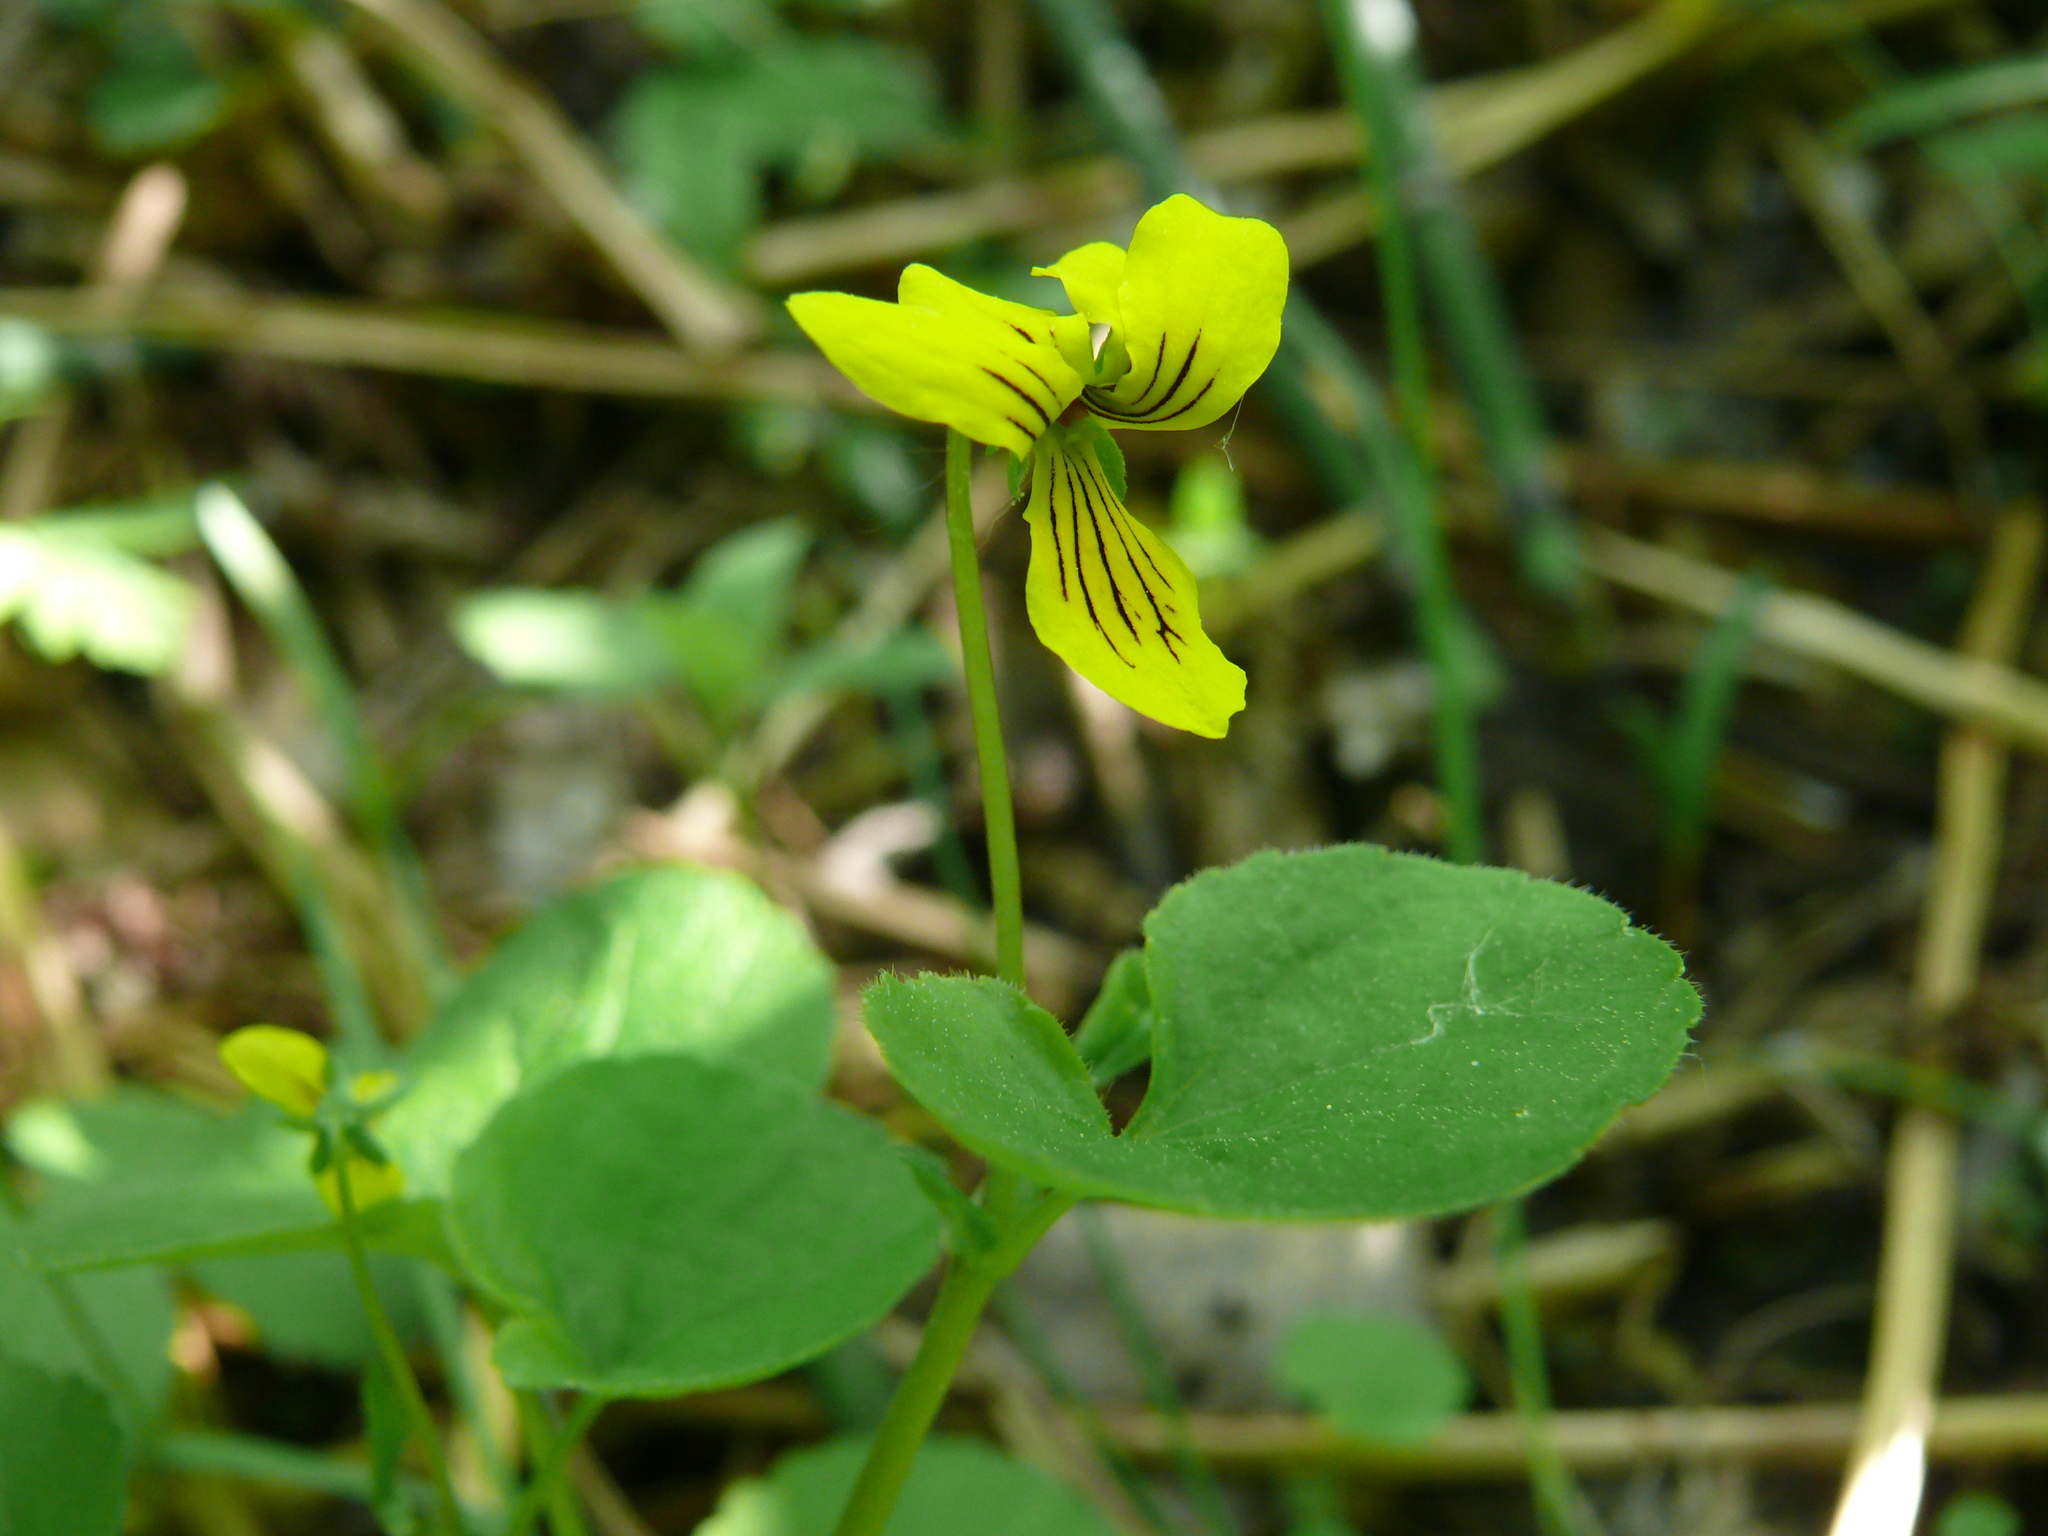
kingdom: Plantae
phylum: Tracheophyta
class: Magnoliopsida
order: Malpighiales
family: Violaceae
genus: Viola
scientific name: Viola biflora
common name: Alpine yellow violet
